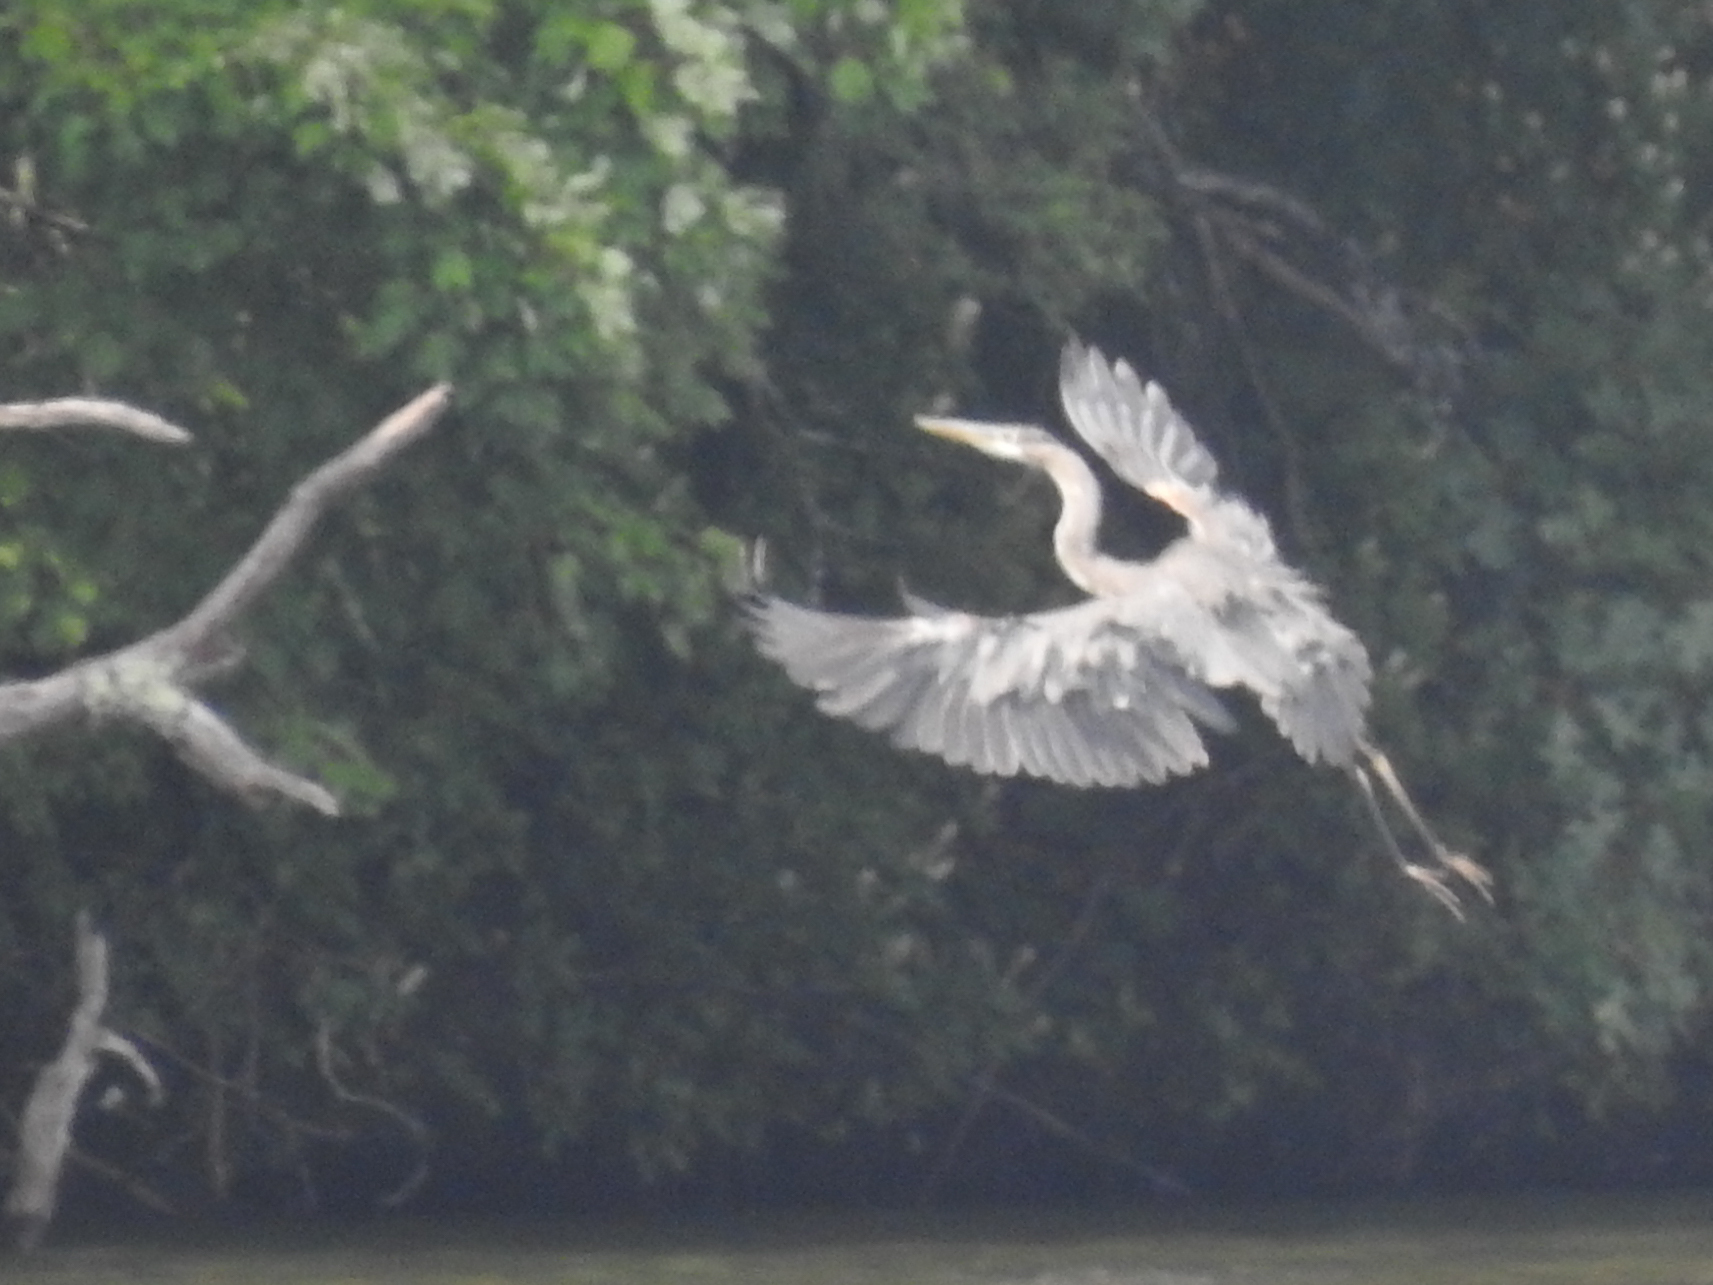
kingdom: Animalia
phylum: Chordata
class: Aves
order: Pelecaniformes
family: Ardeidae
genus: Ardea
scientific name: Ardea herodias
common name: Great blue heron
